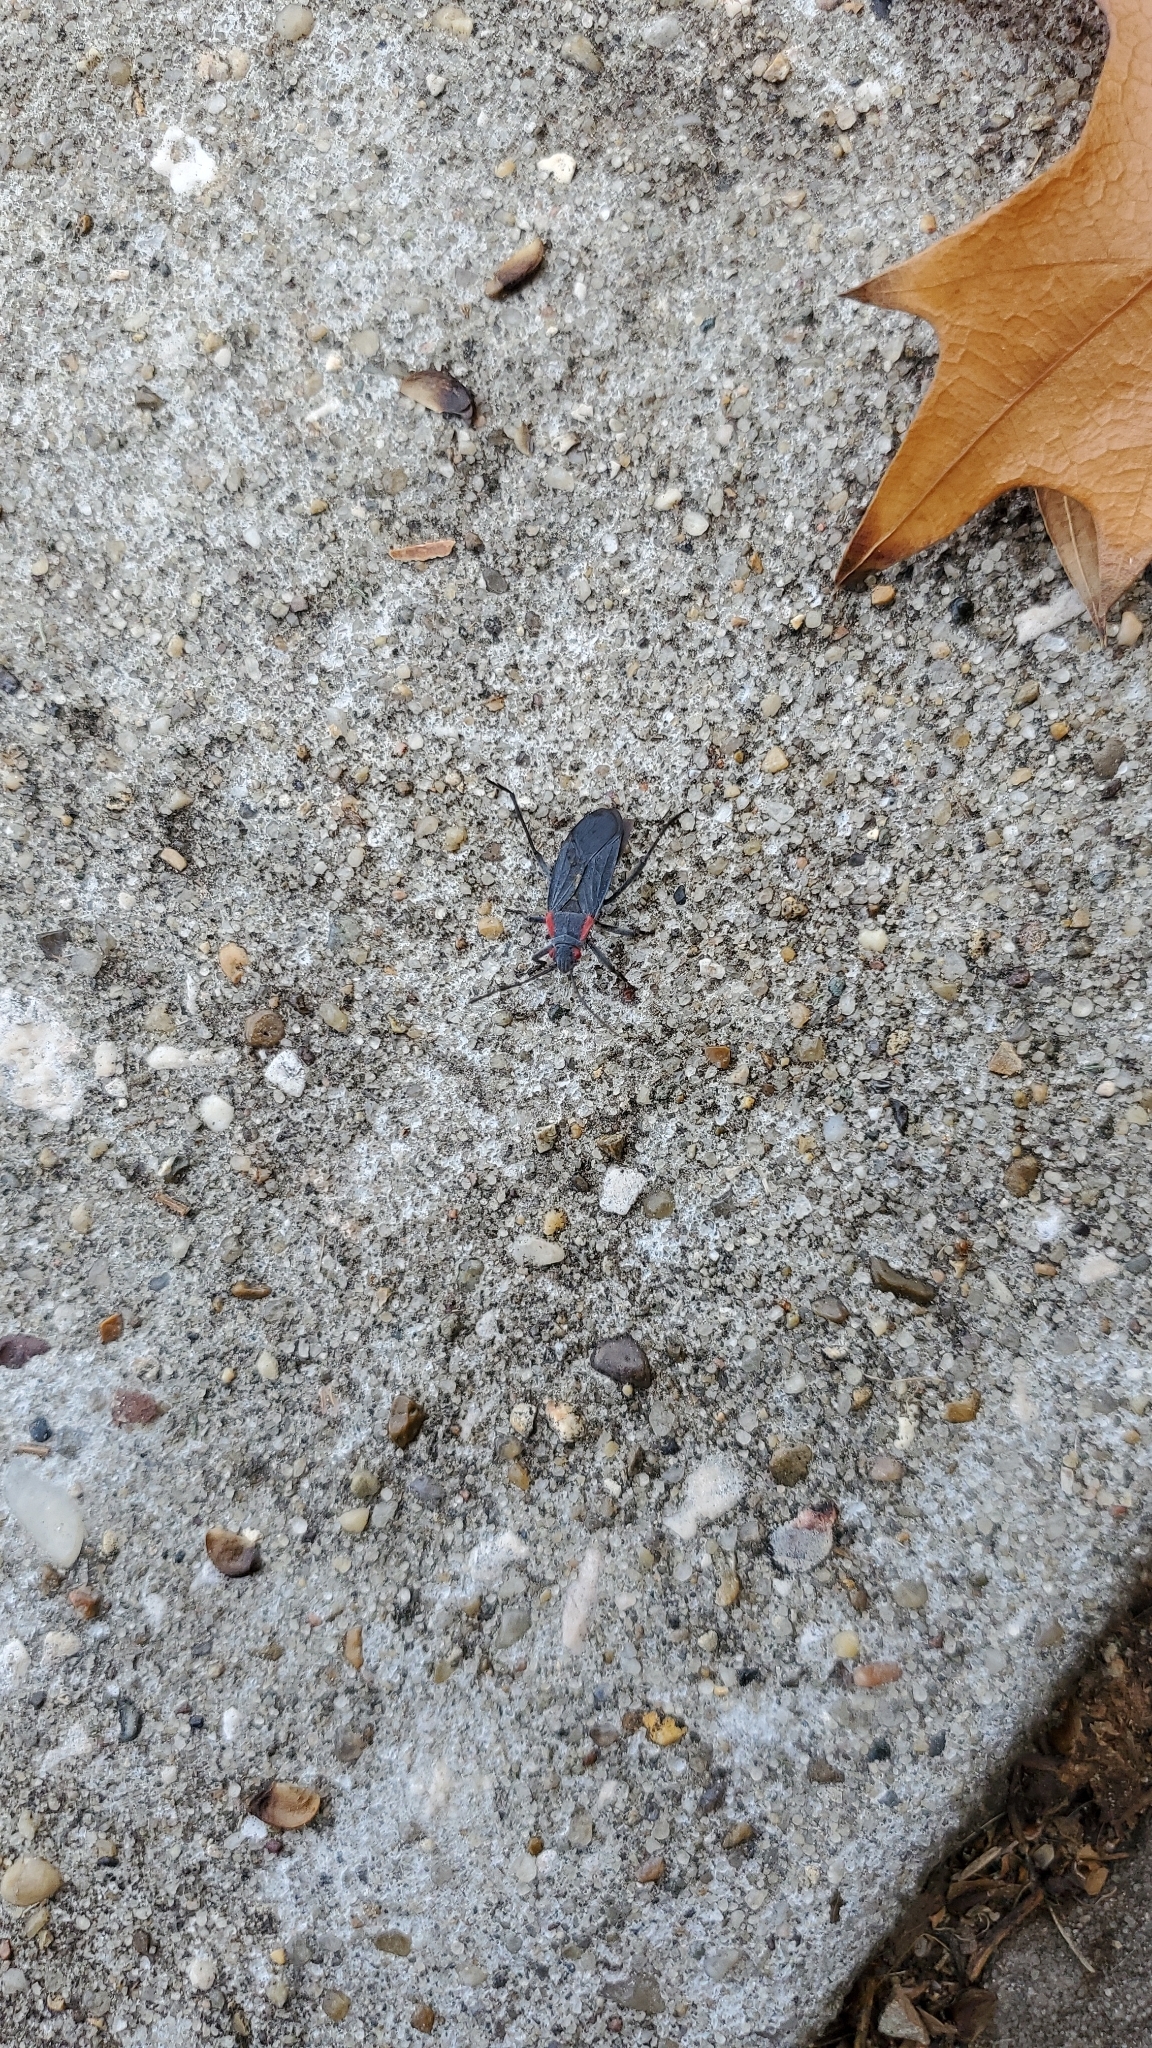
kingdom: Animalia
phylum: Arthropoda
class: Insecta
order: Hemiptera
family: Rhopalidae
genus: Jadera
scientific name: Jadera haematoloma
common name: Red-shouldered bug
